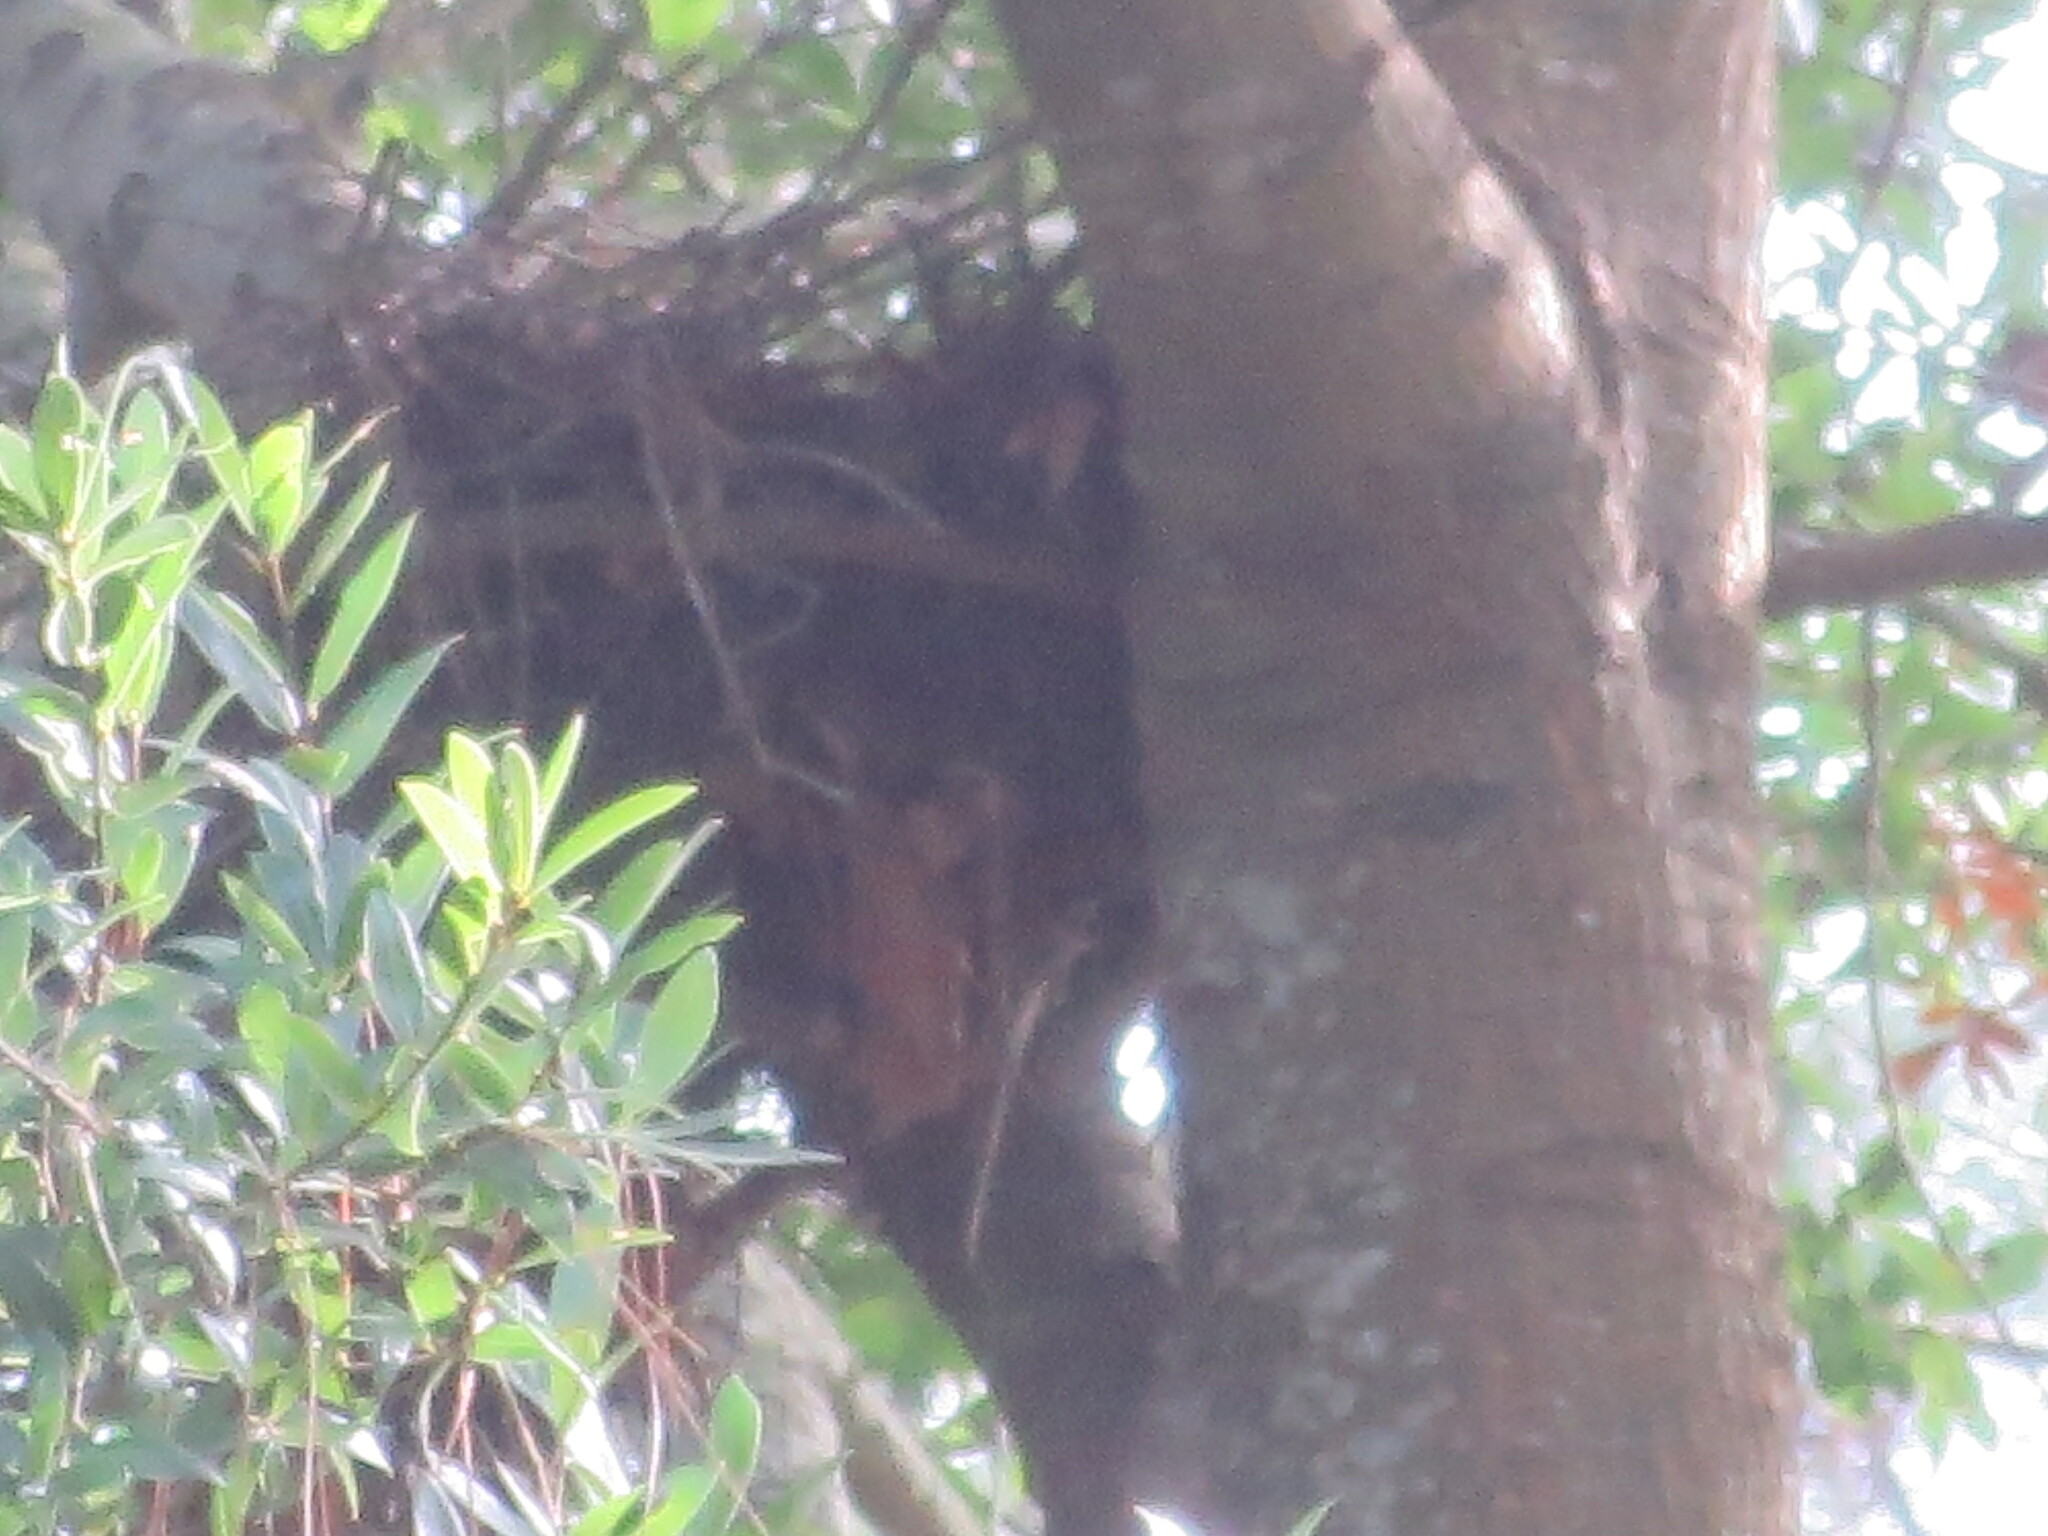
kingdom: Animalia
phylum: Chordata
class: Mammalia
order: Rodentia
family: Sciuridae
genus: Sciurus
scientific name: Sciurus carolinensis
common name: Eastern gray squirrel
